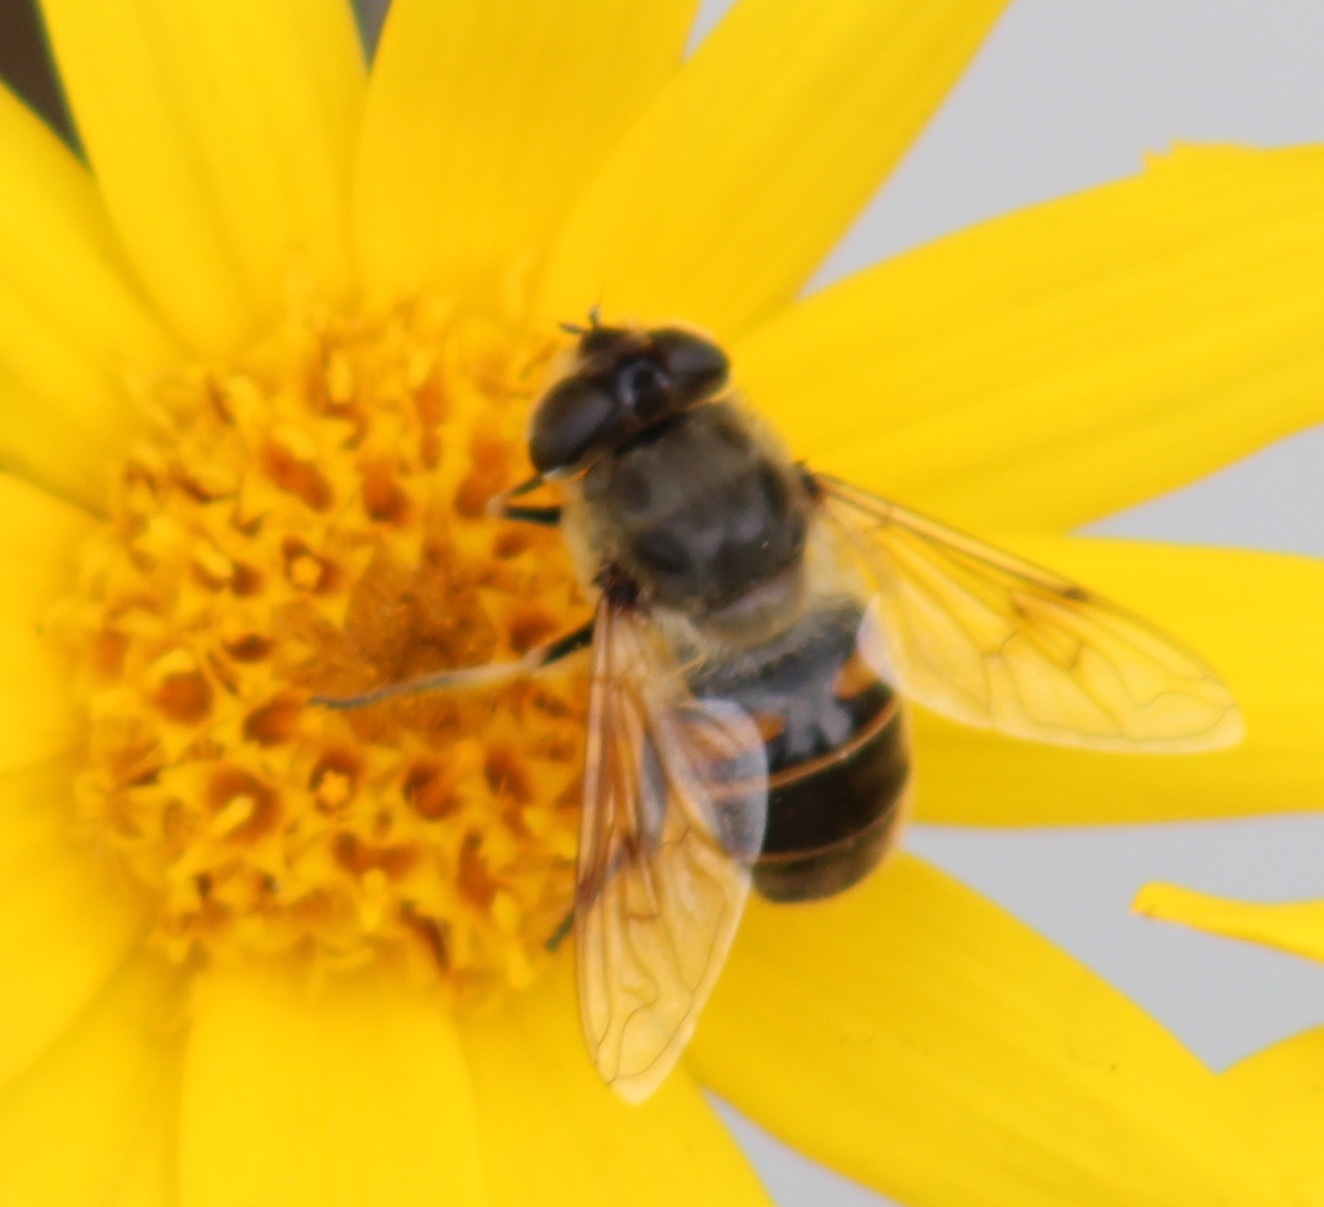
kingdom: Animalia
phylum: Arthropoda
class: Insecta
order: Diptera
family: Syrphidae
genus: Eristalis
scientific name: Eristalis tenax
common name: Drone fly
